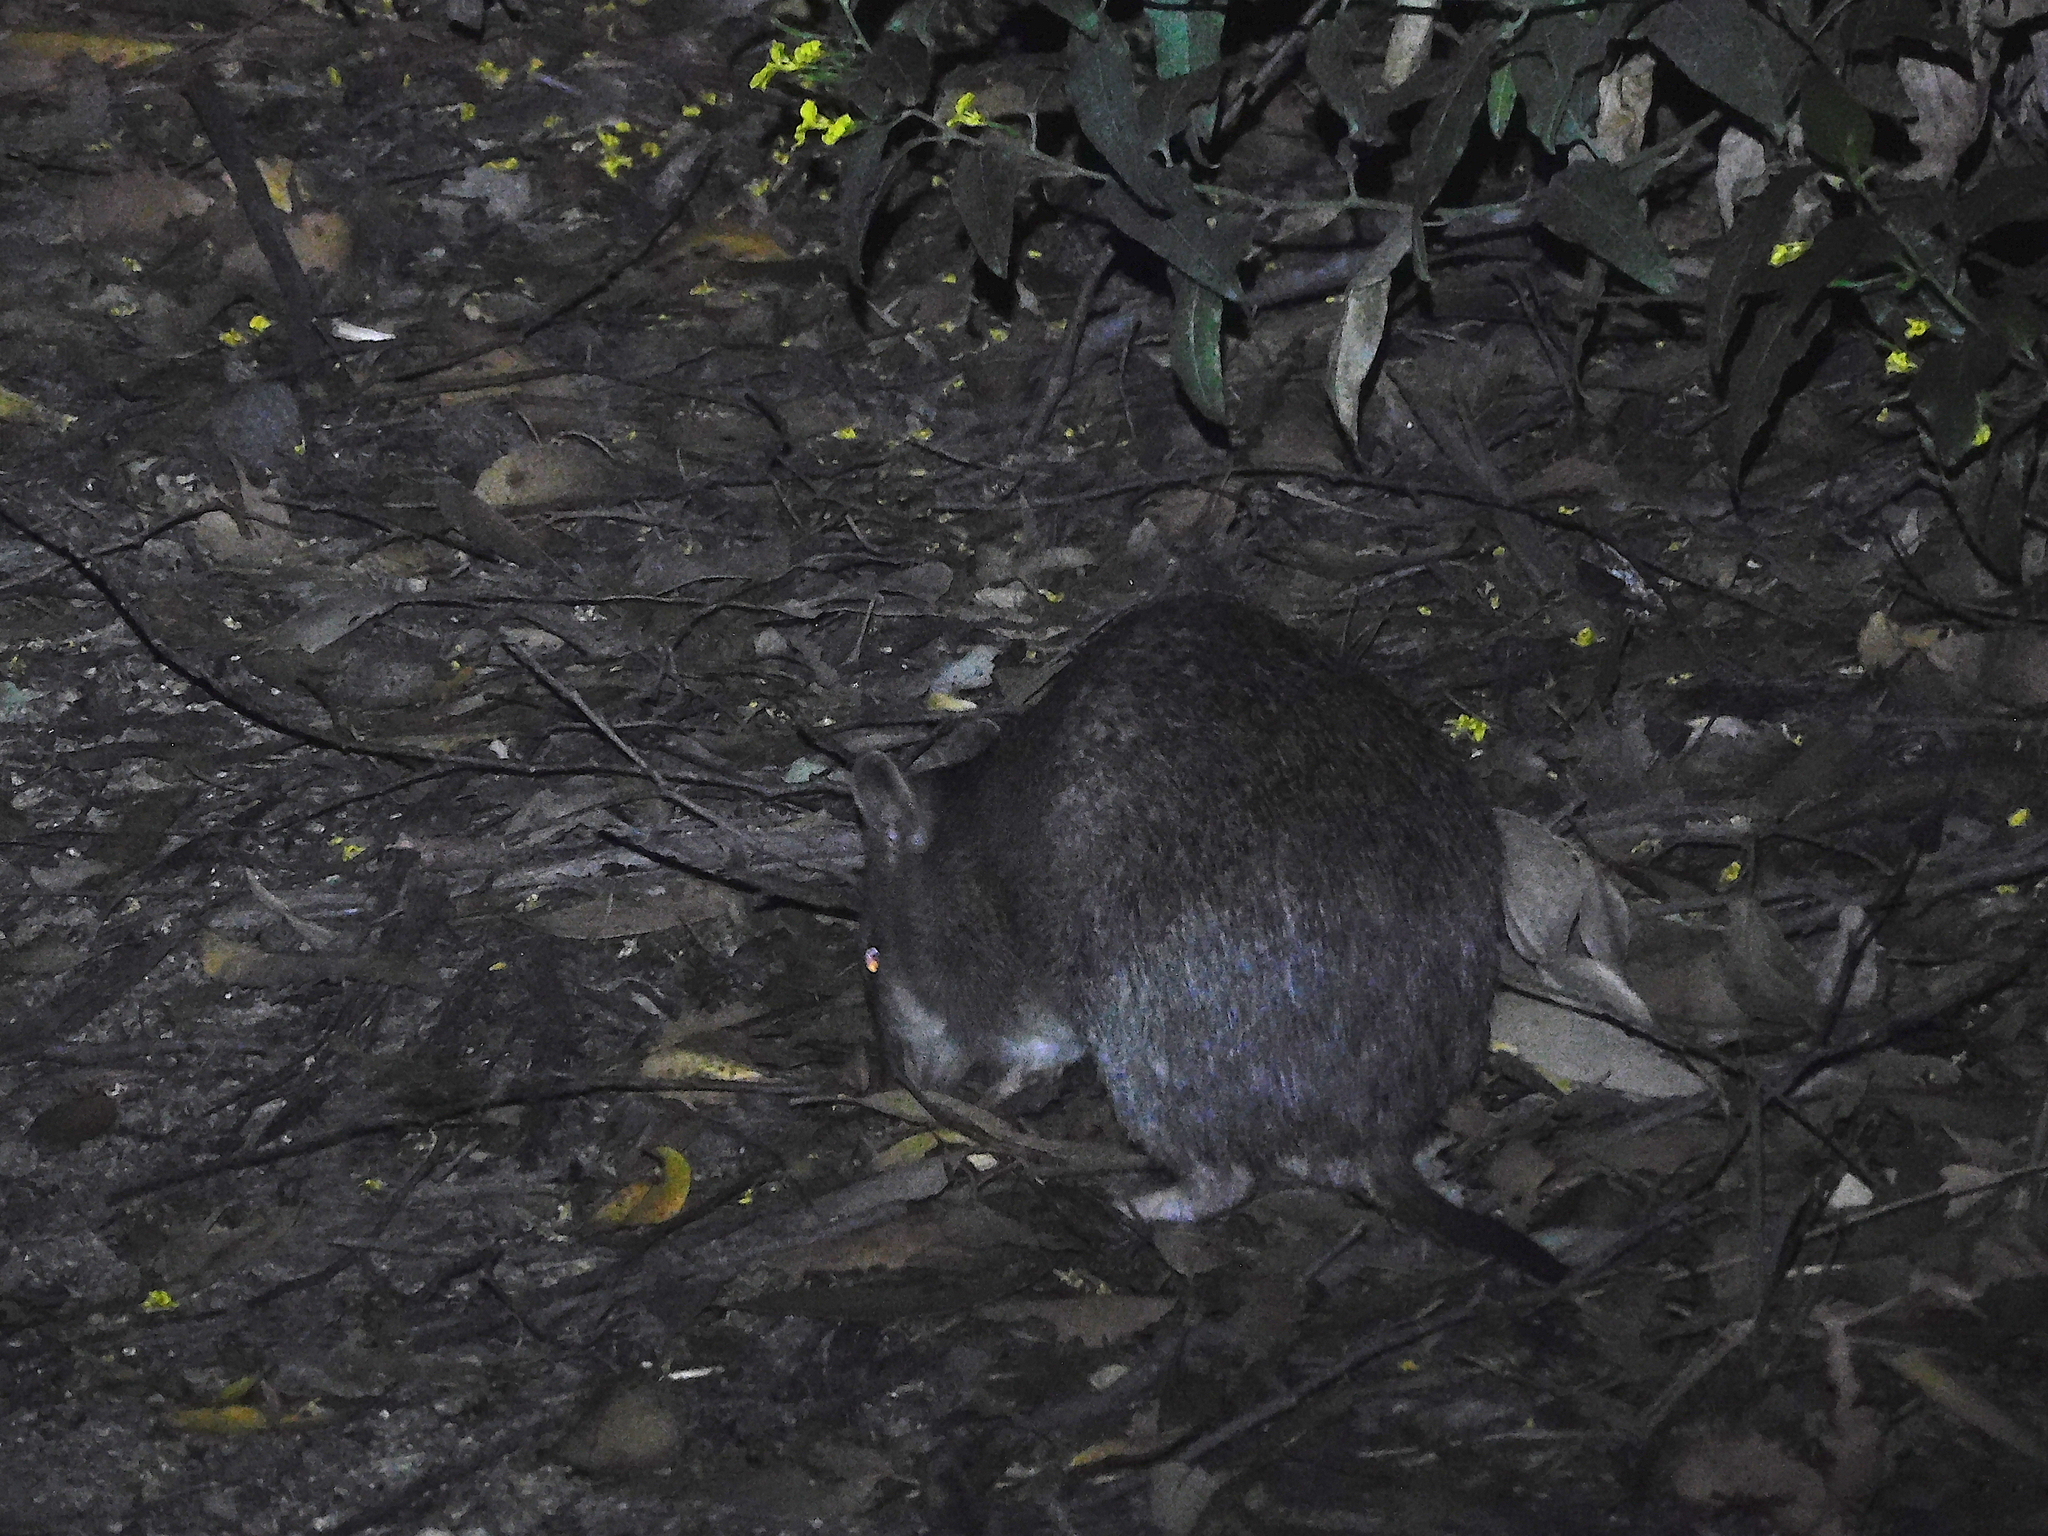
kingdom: Animalia
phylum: Chordata
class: Mammalia
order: Peramelemorphia
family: Peramelidae
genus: Isoodon
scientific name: Isoodon obesulus
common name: Southern brown bandicoot
